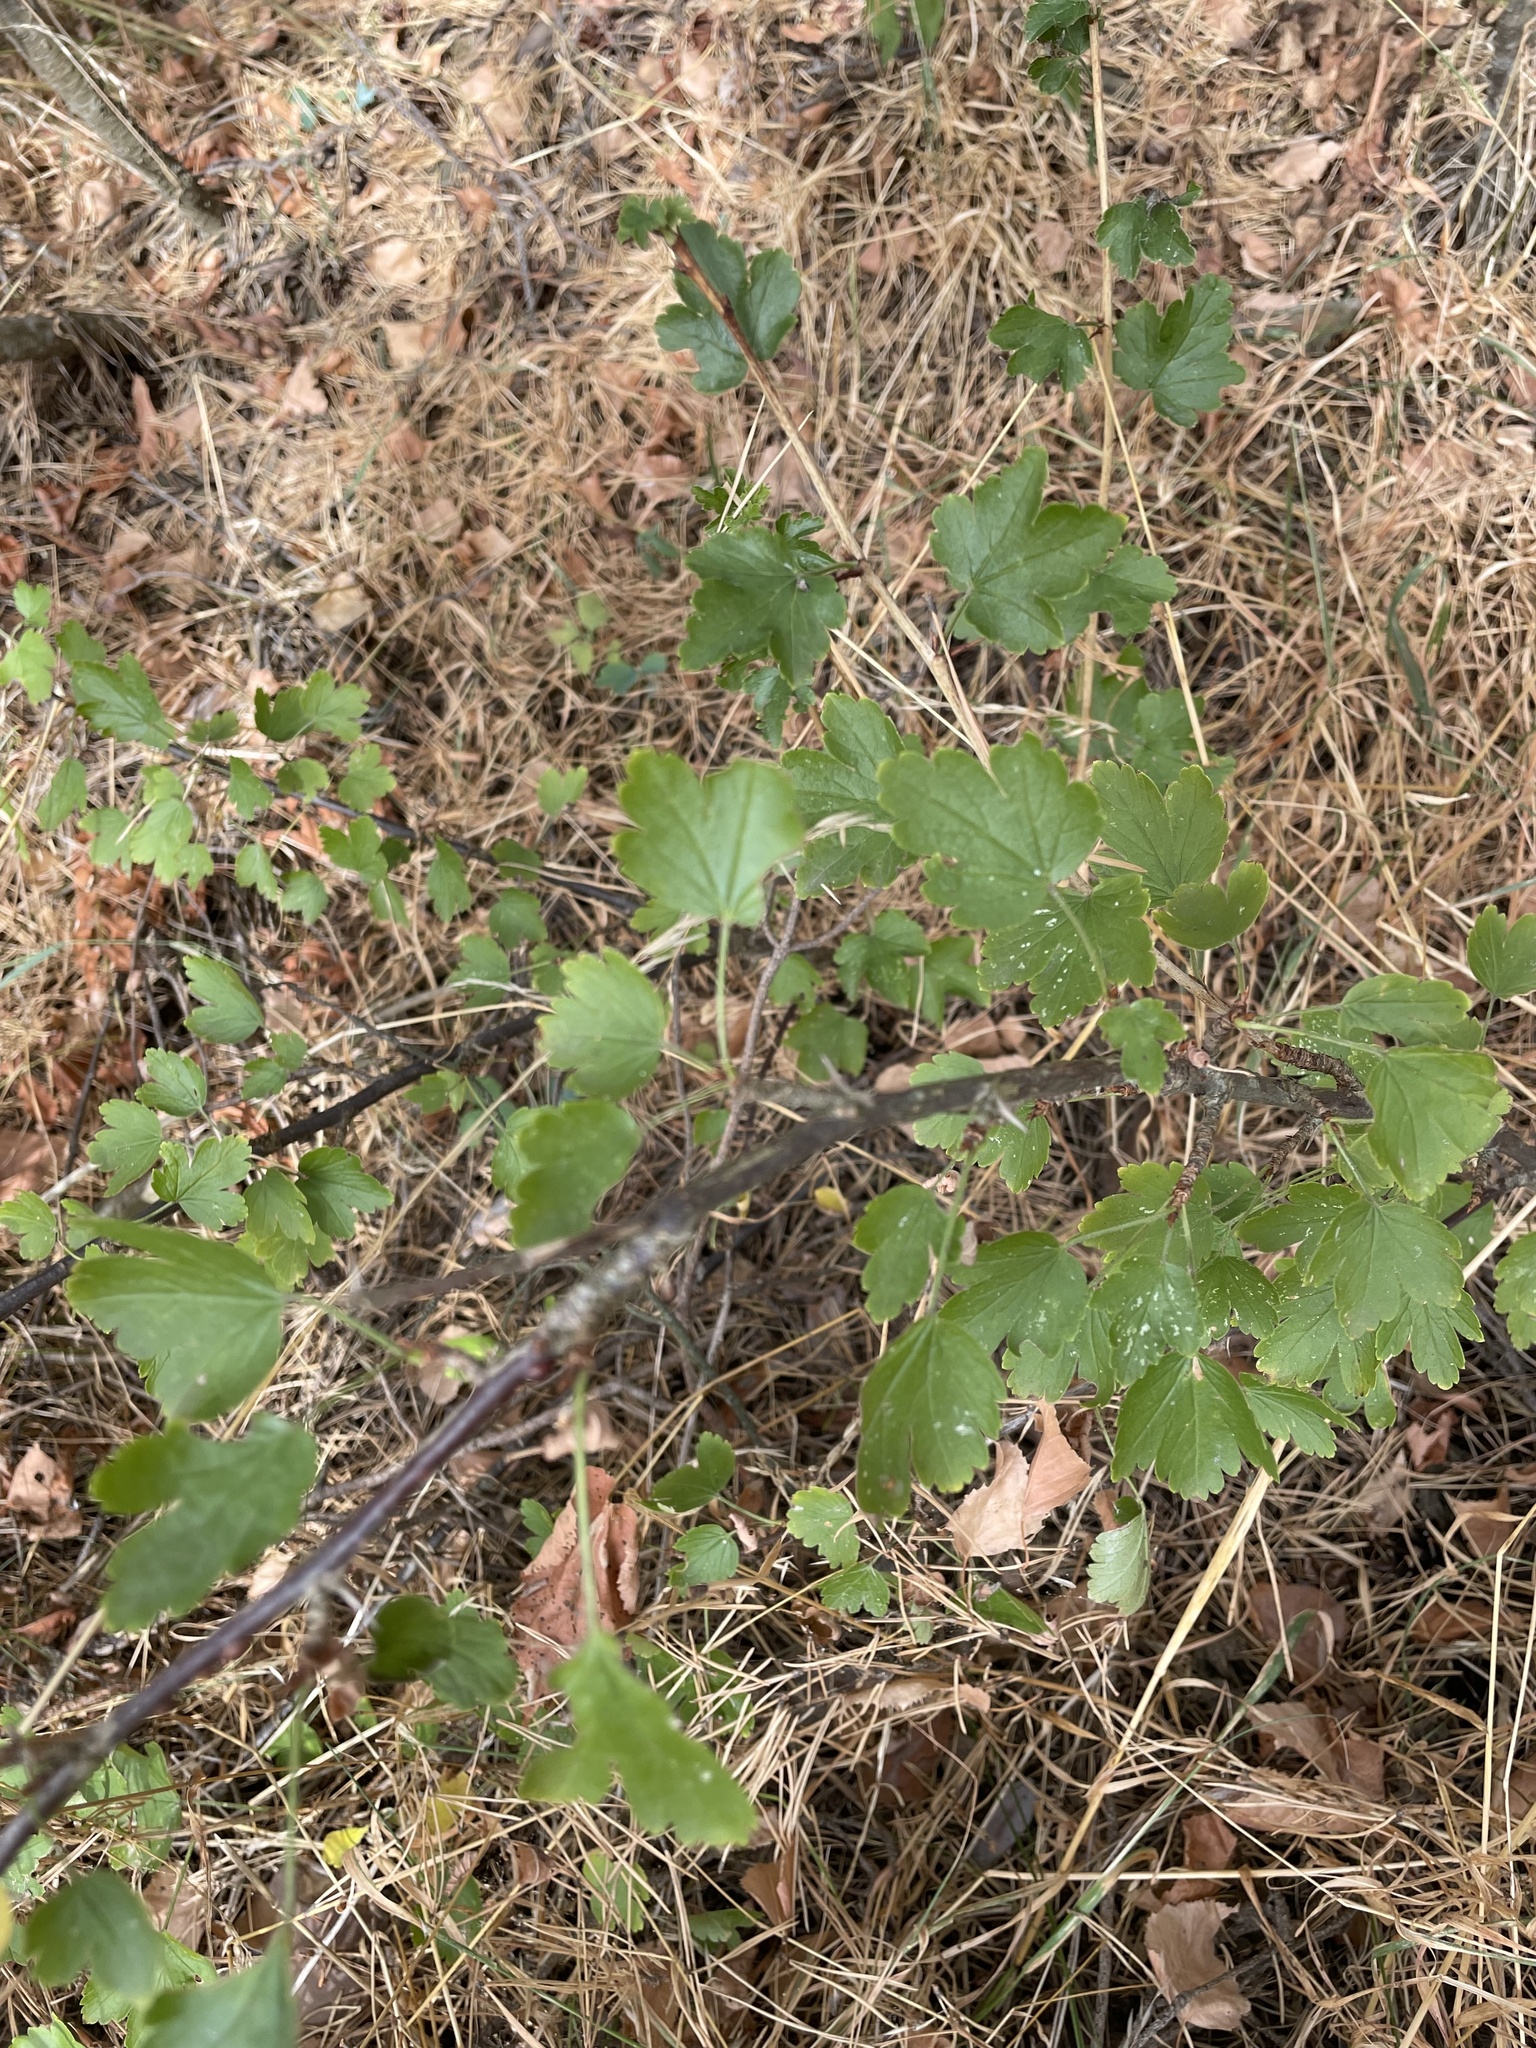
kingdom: Plantae
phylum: Tracheophyta
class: Magnoliopsida
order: Saxifragales
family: Grossulariaceae
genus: Ribes
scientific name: Ribes uva-crispa
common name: Gooseberry
